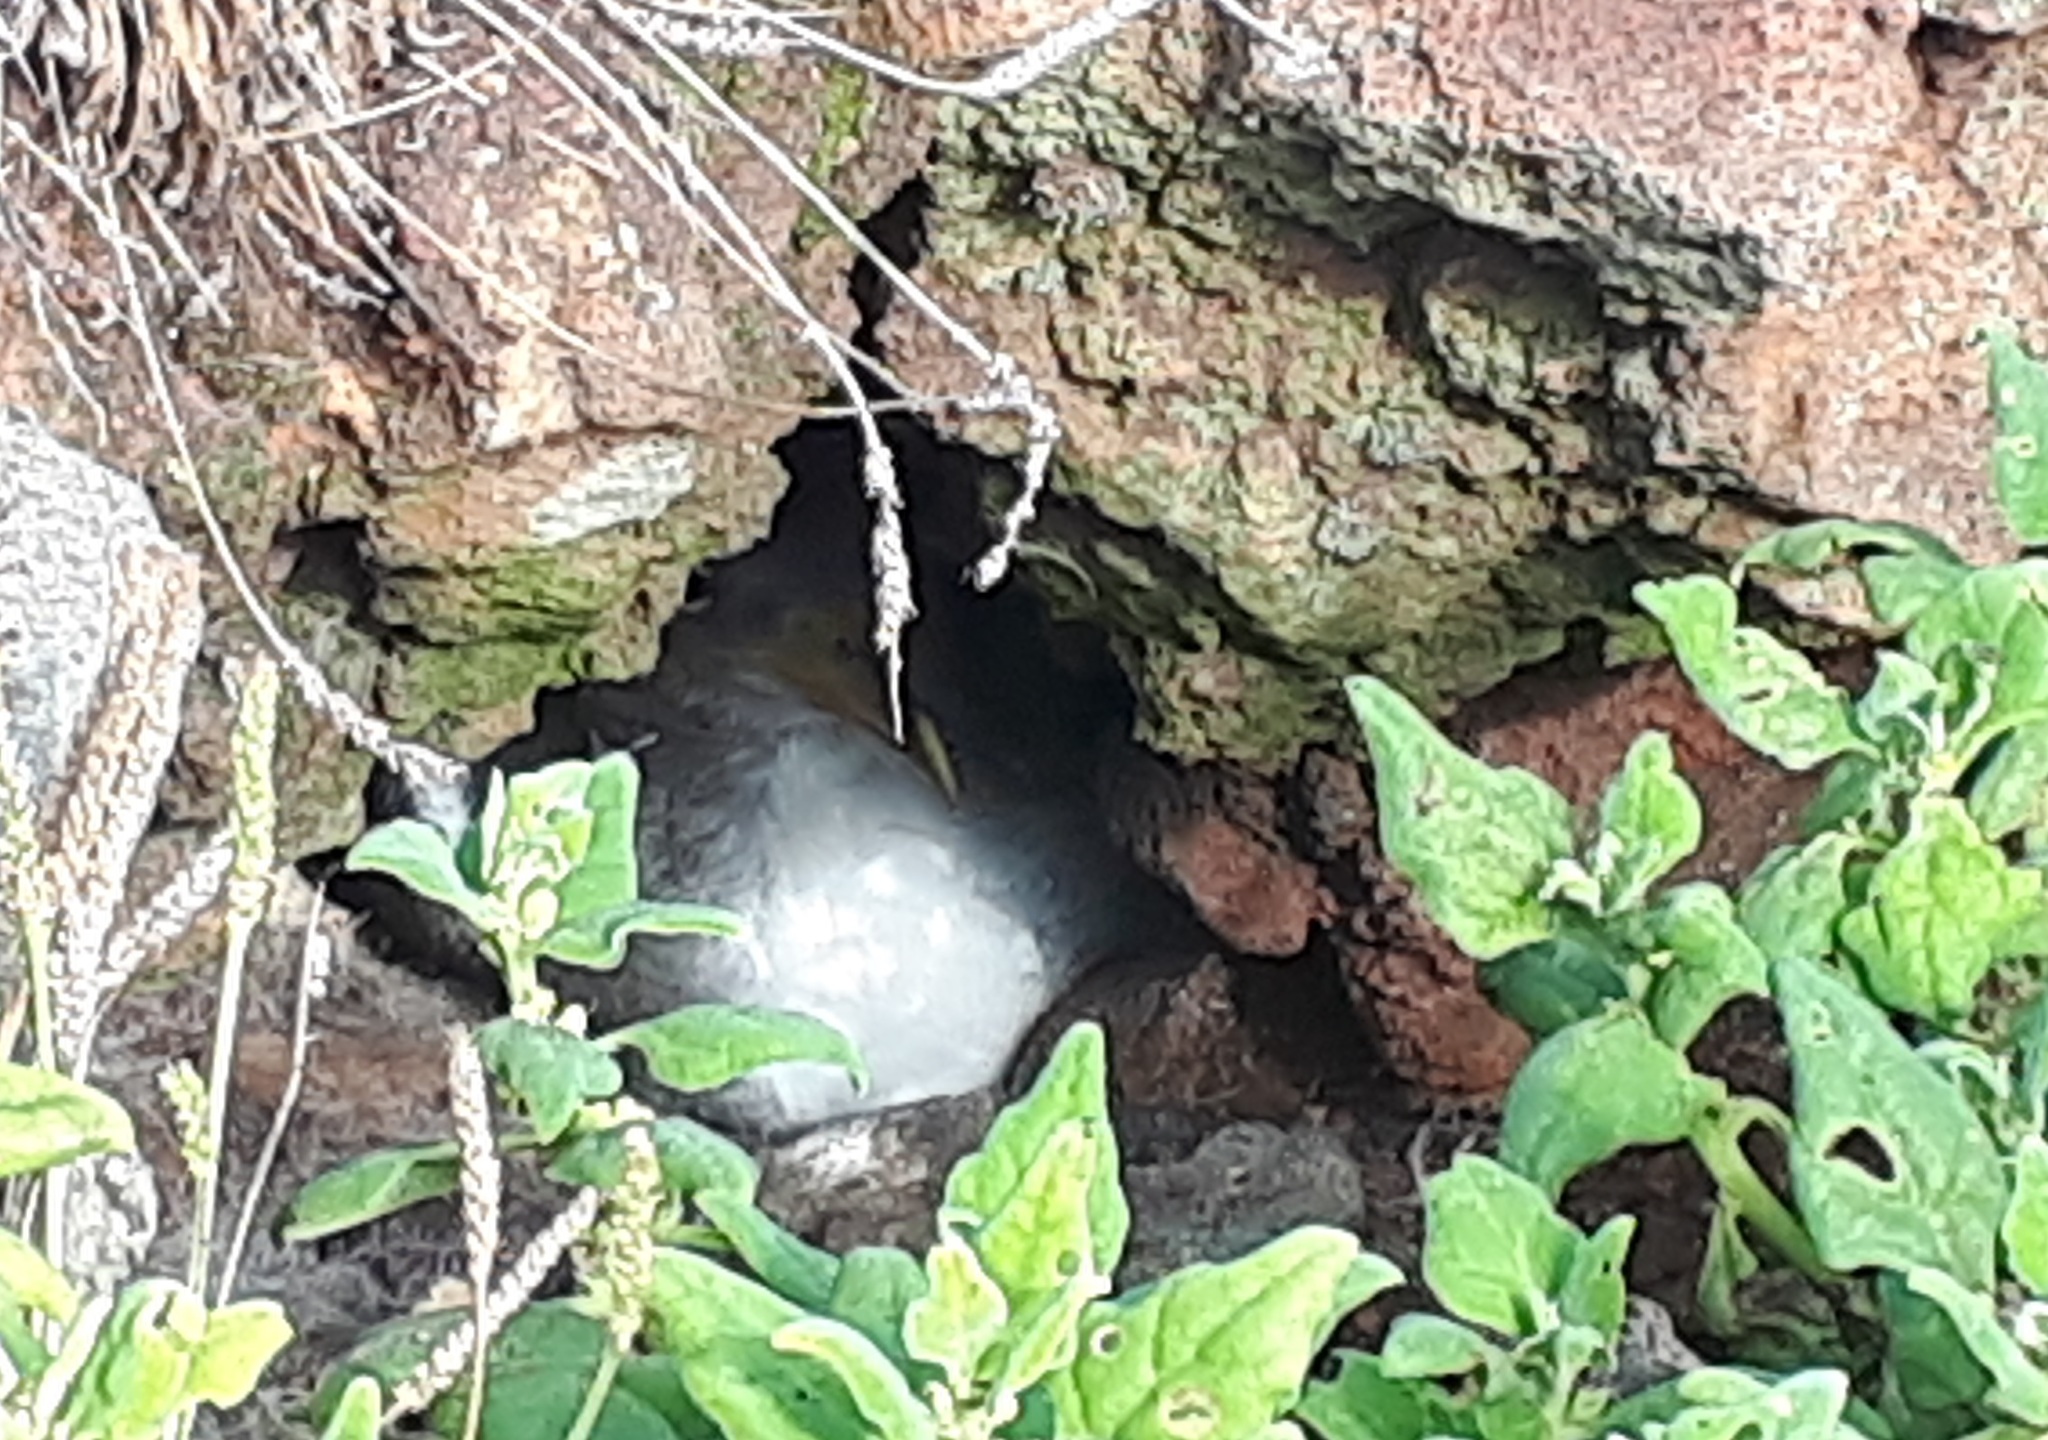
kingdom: Animalia
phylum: Chordata
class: Aves
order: Procellariiformes
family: Procellariidae
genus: Calonectris
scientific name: Calonectris diomedea
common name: Cory's shearwater
